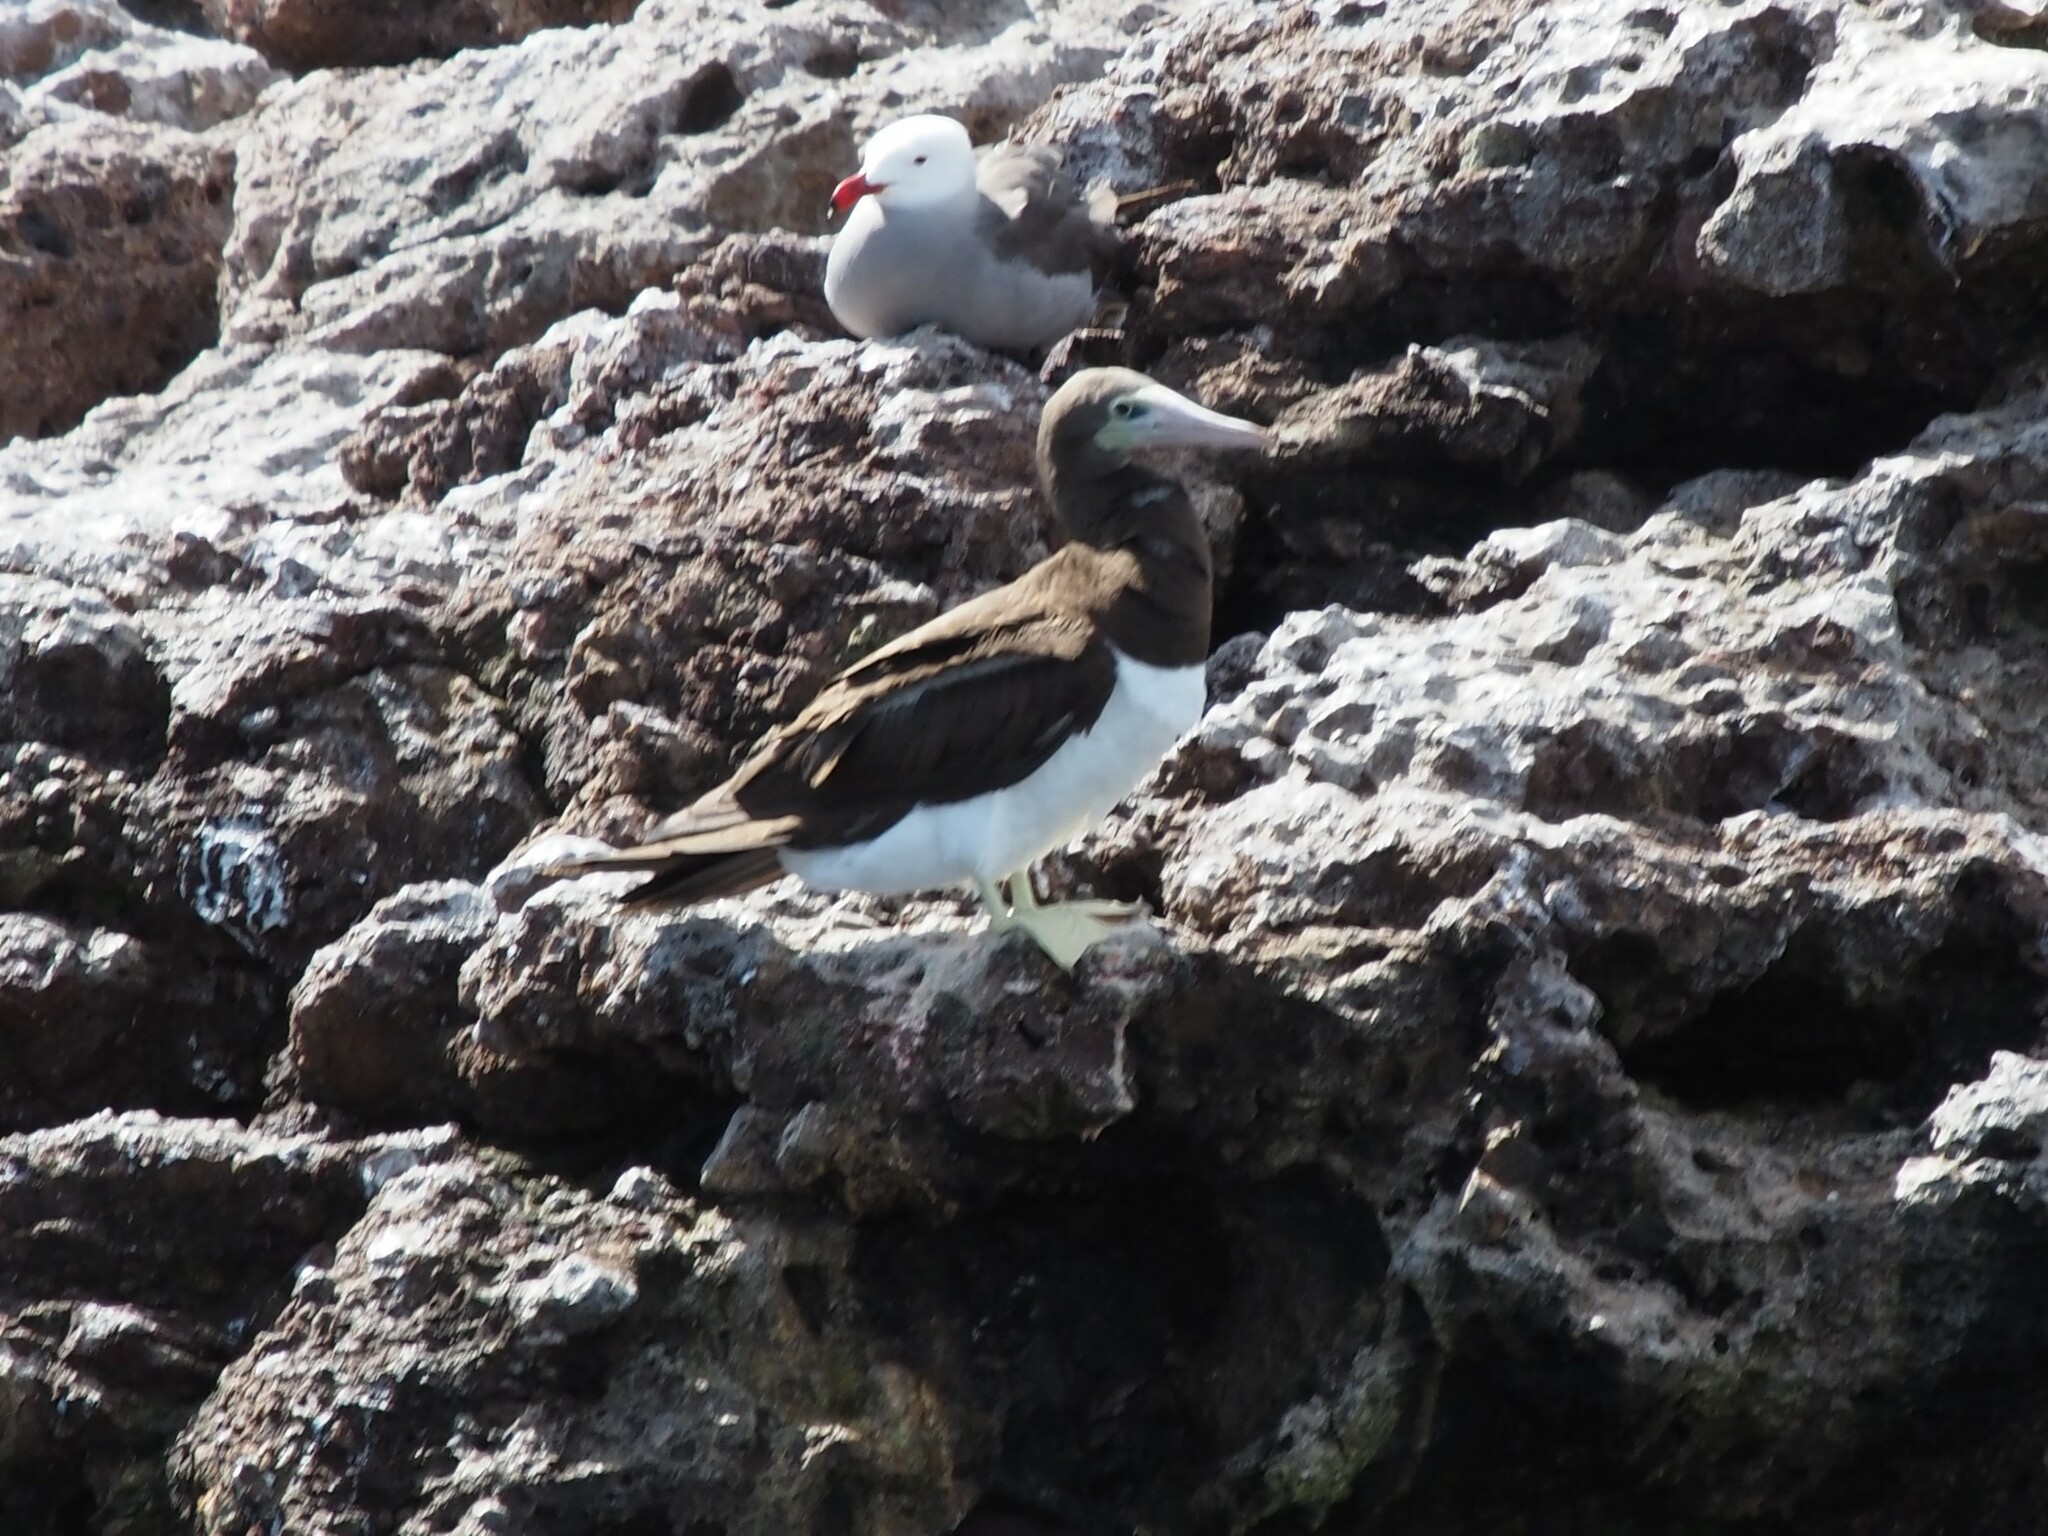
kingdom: Animalia
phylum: Chordata
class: Aves
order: Suliformes
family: Sulidae
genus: Sula
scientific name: Sula leucogaster
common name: Brown booby
